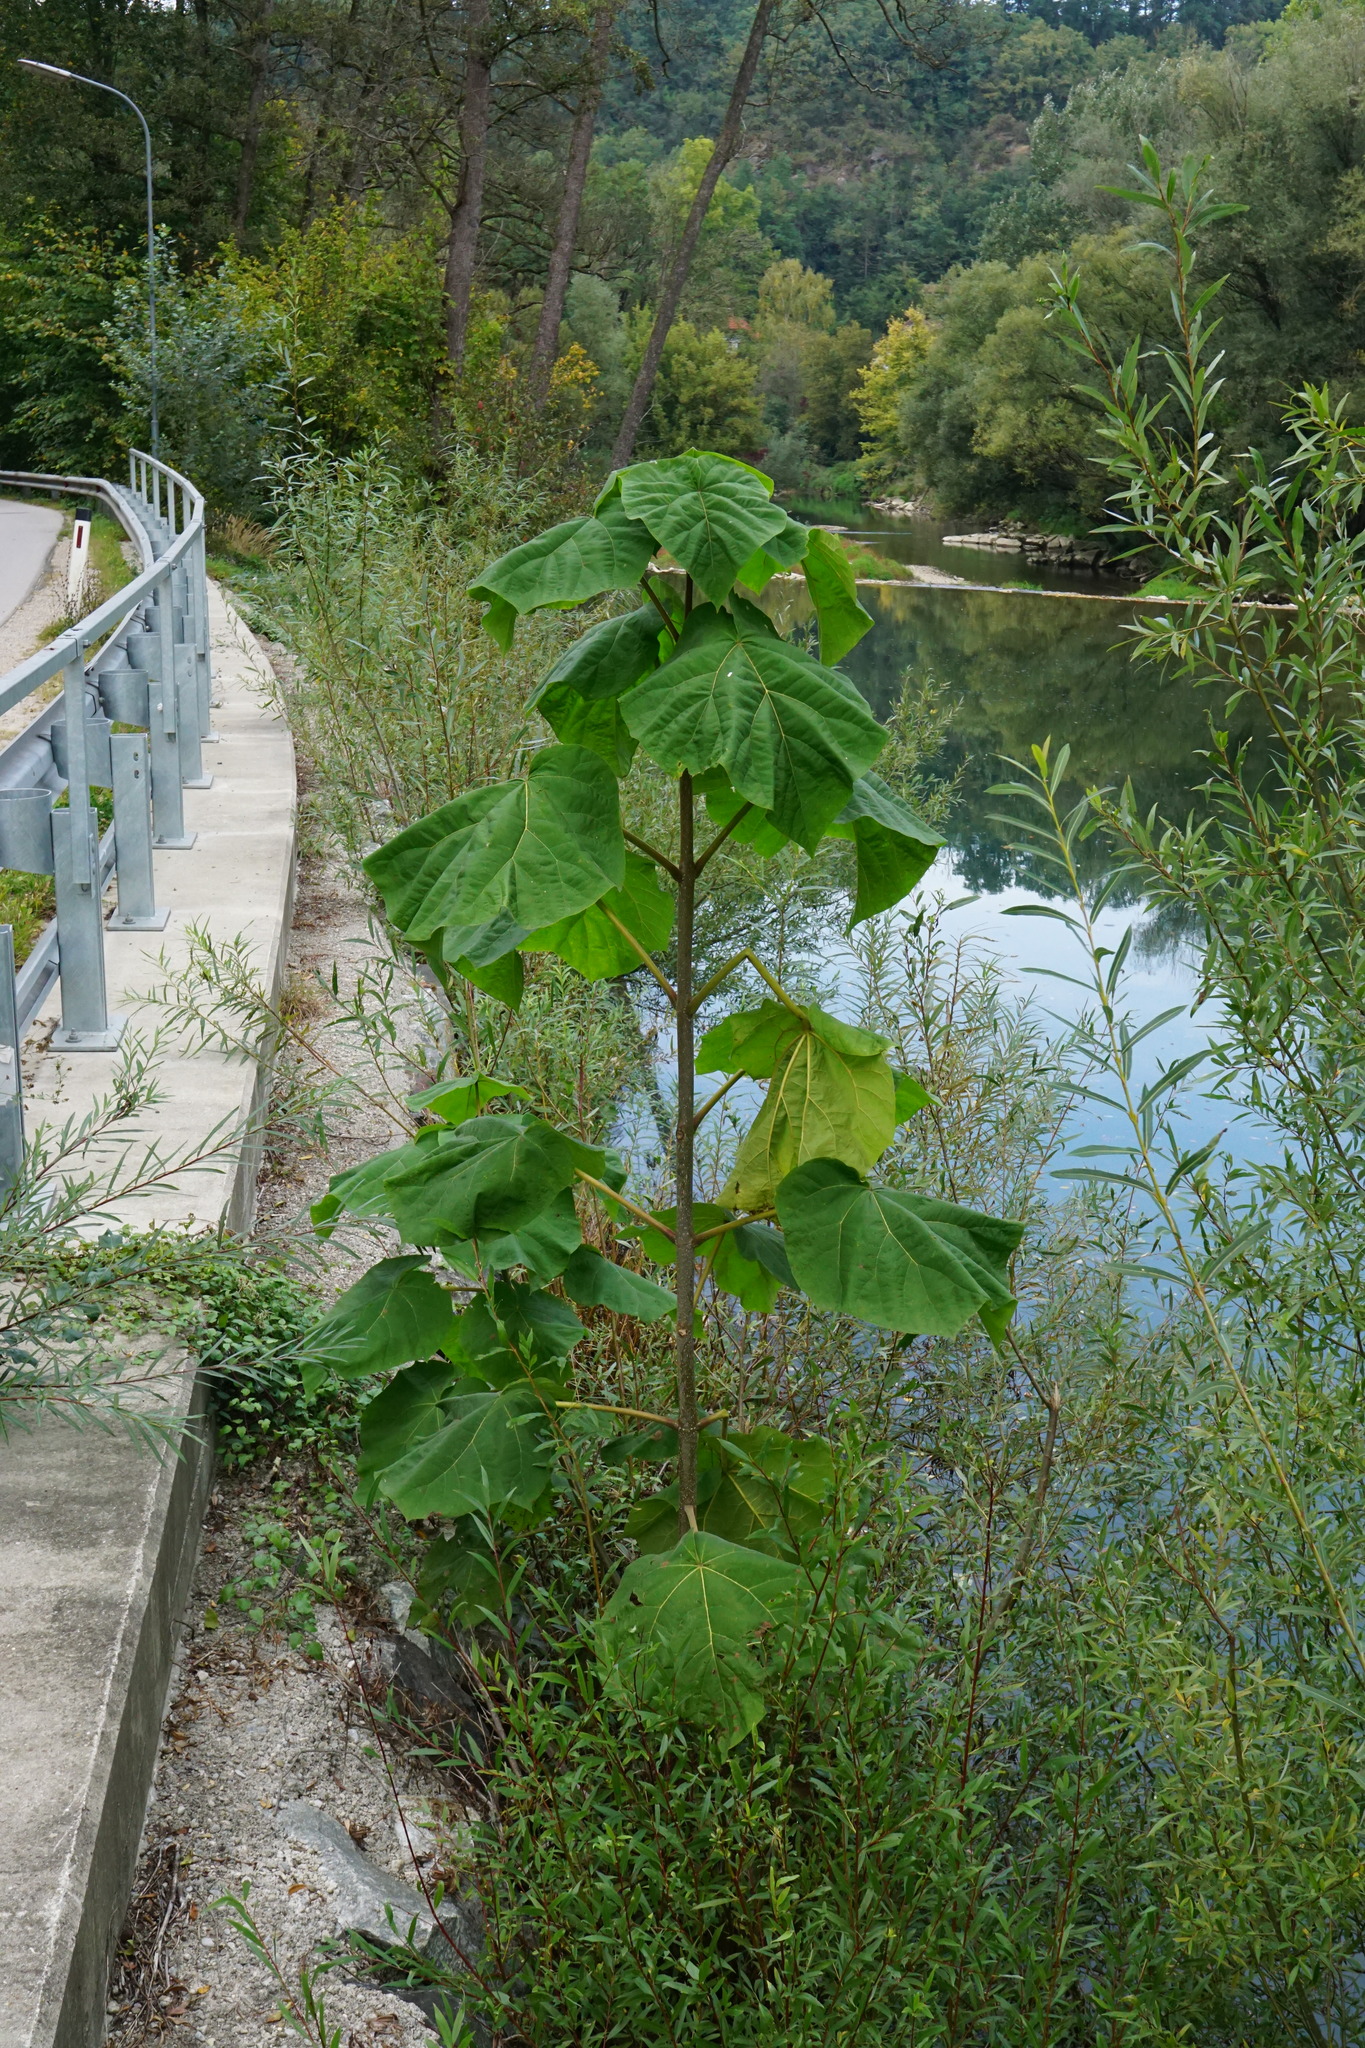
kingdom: Plantae
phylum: Tracheophyta
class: Magnoliopsida
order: Lamiales
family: Paulowniaceae
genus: Paulownia
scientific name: Paulownia tomentosa
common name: Foxglove-tree
